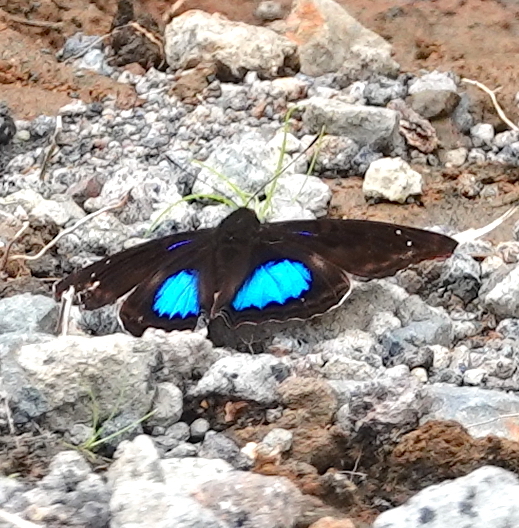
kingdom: Animalia
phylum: Arthropoda
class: Insecta
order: Lepidoptera
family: Nymphalidae
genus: Doxocopa
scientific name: Doxocopa cyane
